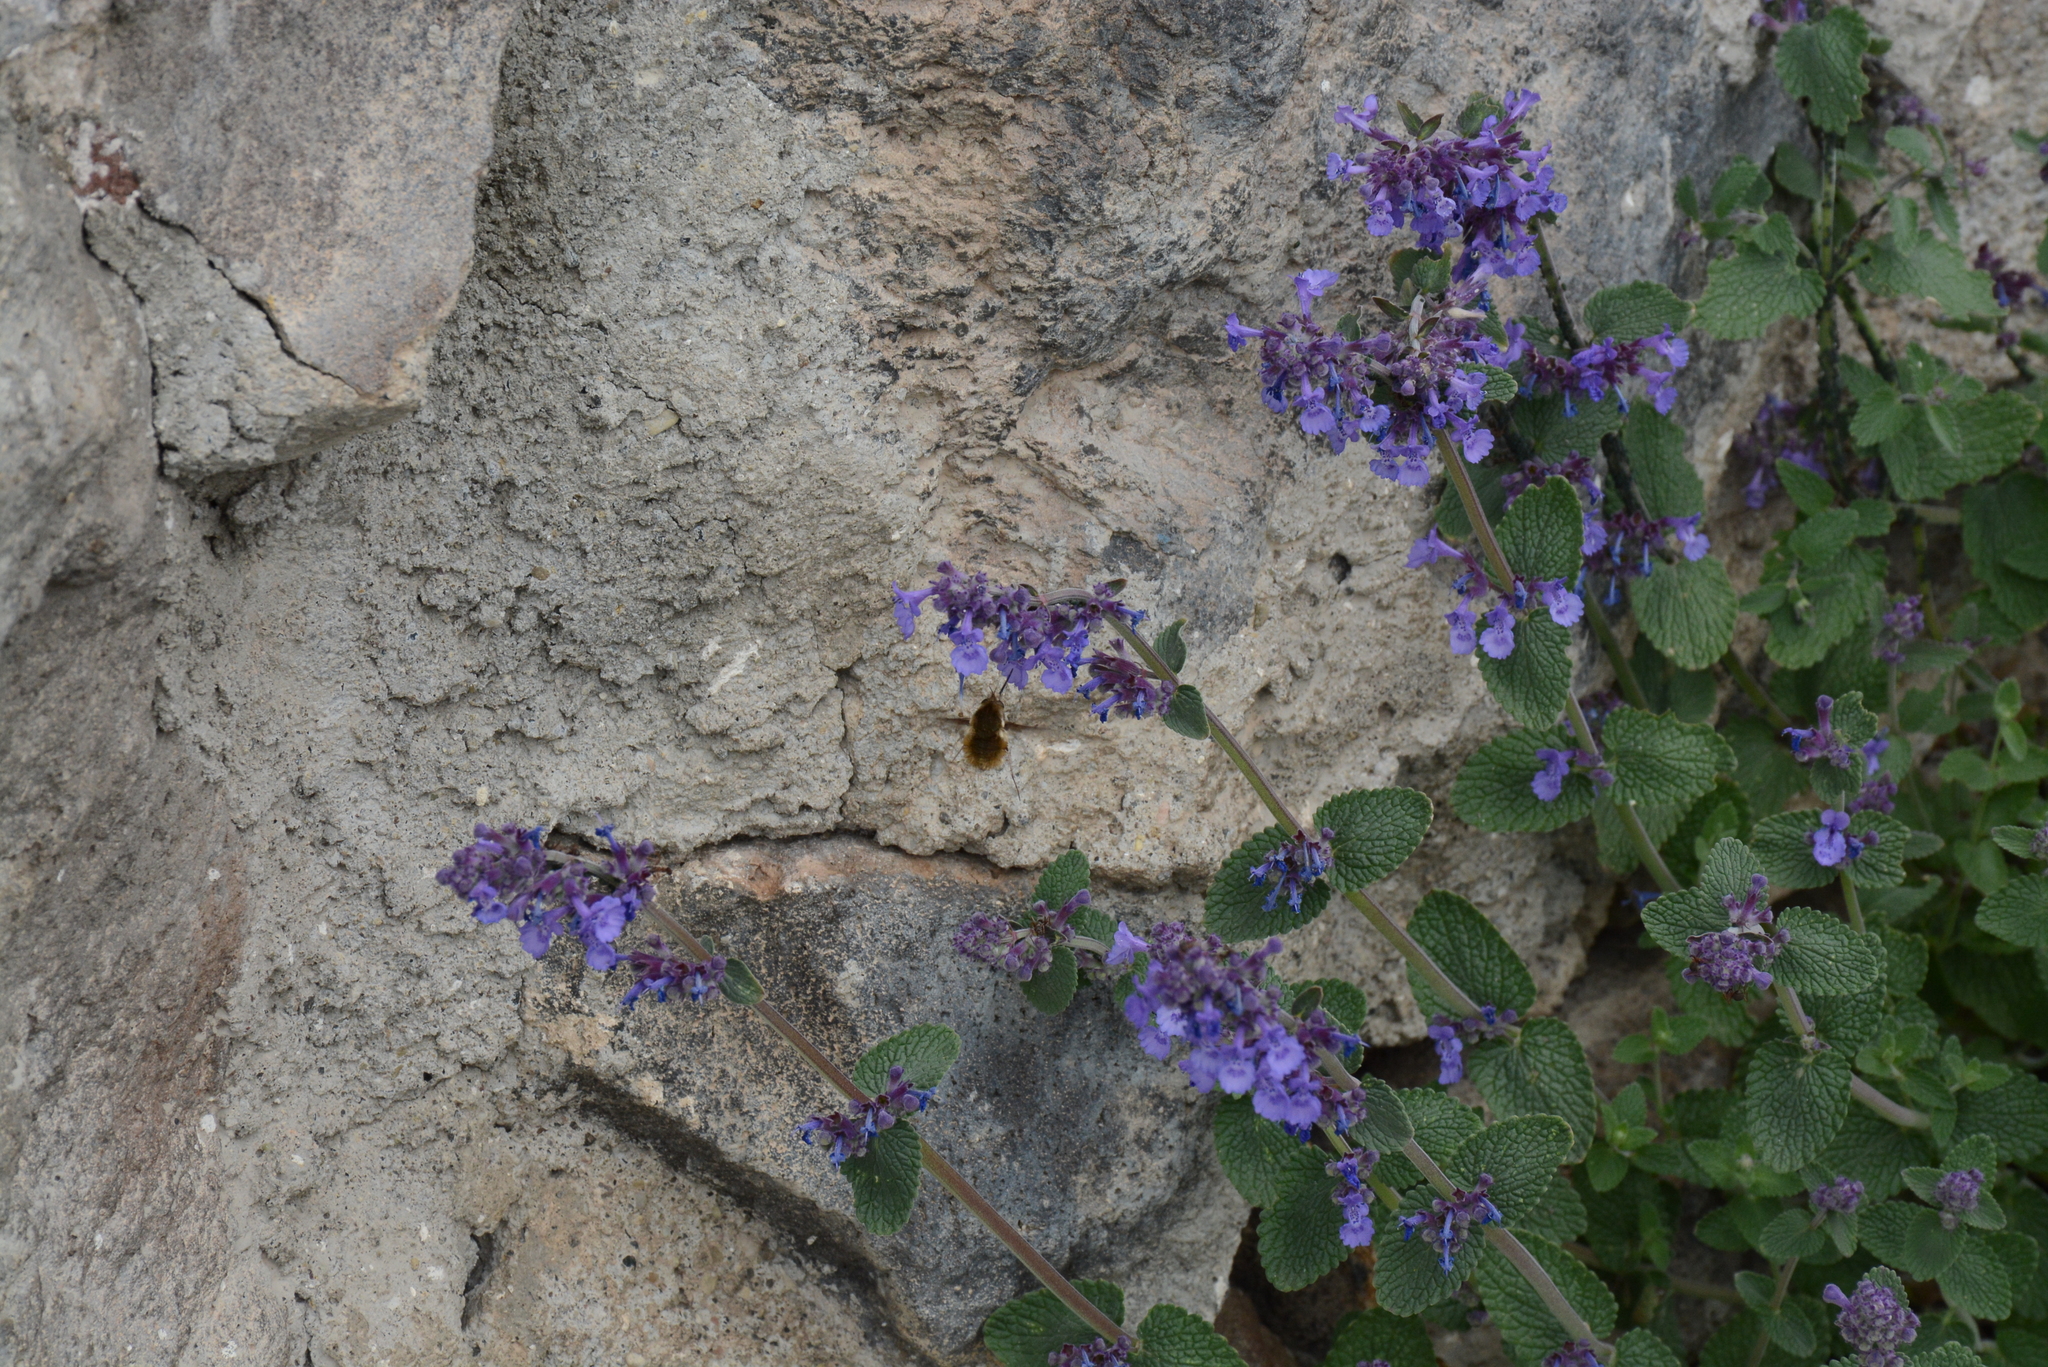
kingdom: Animalia
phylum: Arthropoda
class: Insecta
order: Lepidoptera
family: Sphingidae
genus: Macroglossum
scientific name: Macroglossum stellatarum
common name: Humming-bird hawk-moth
